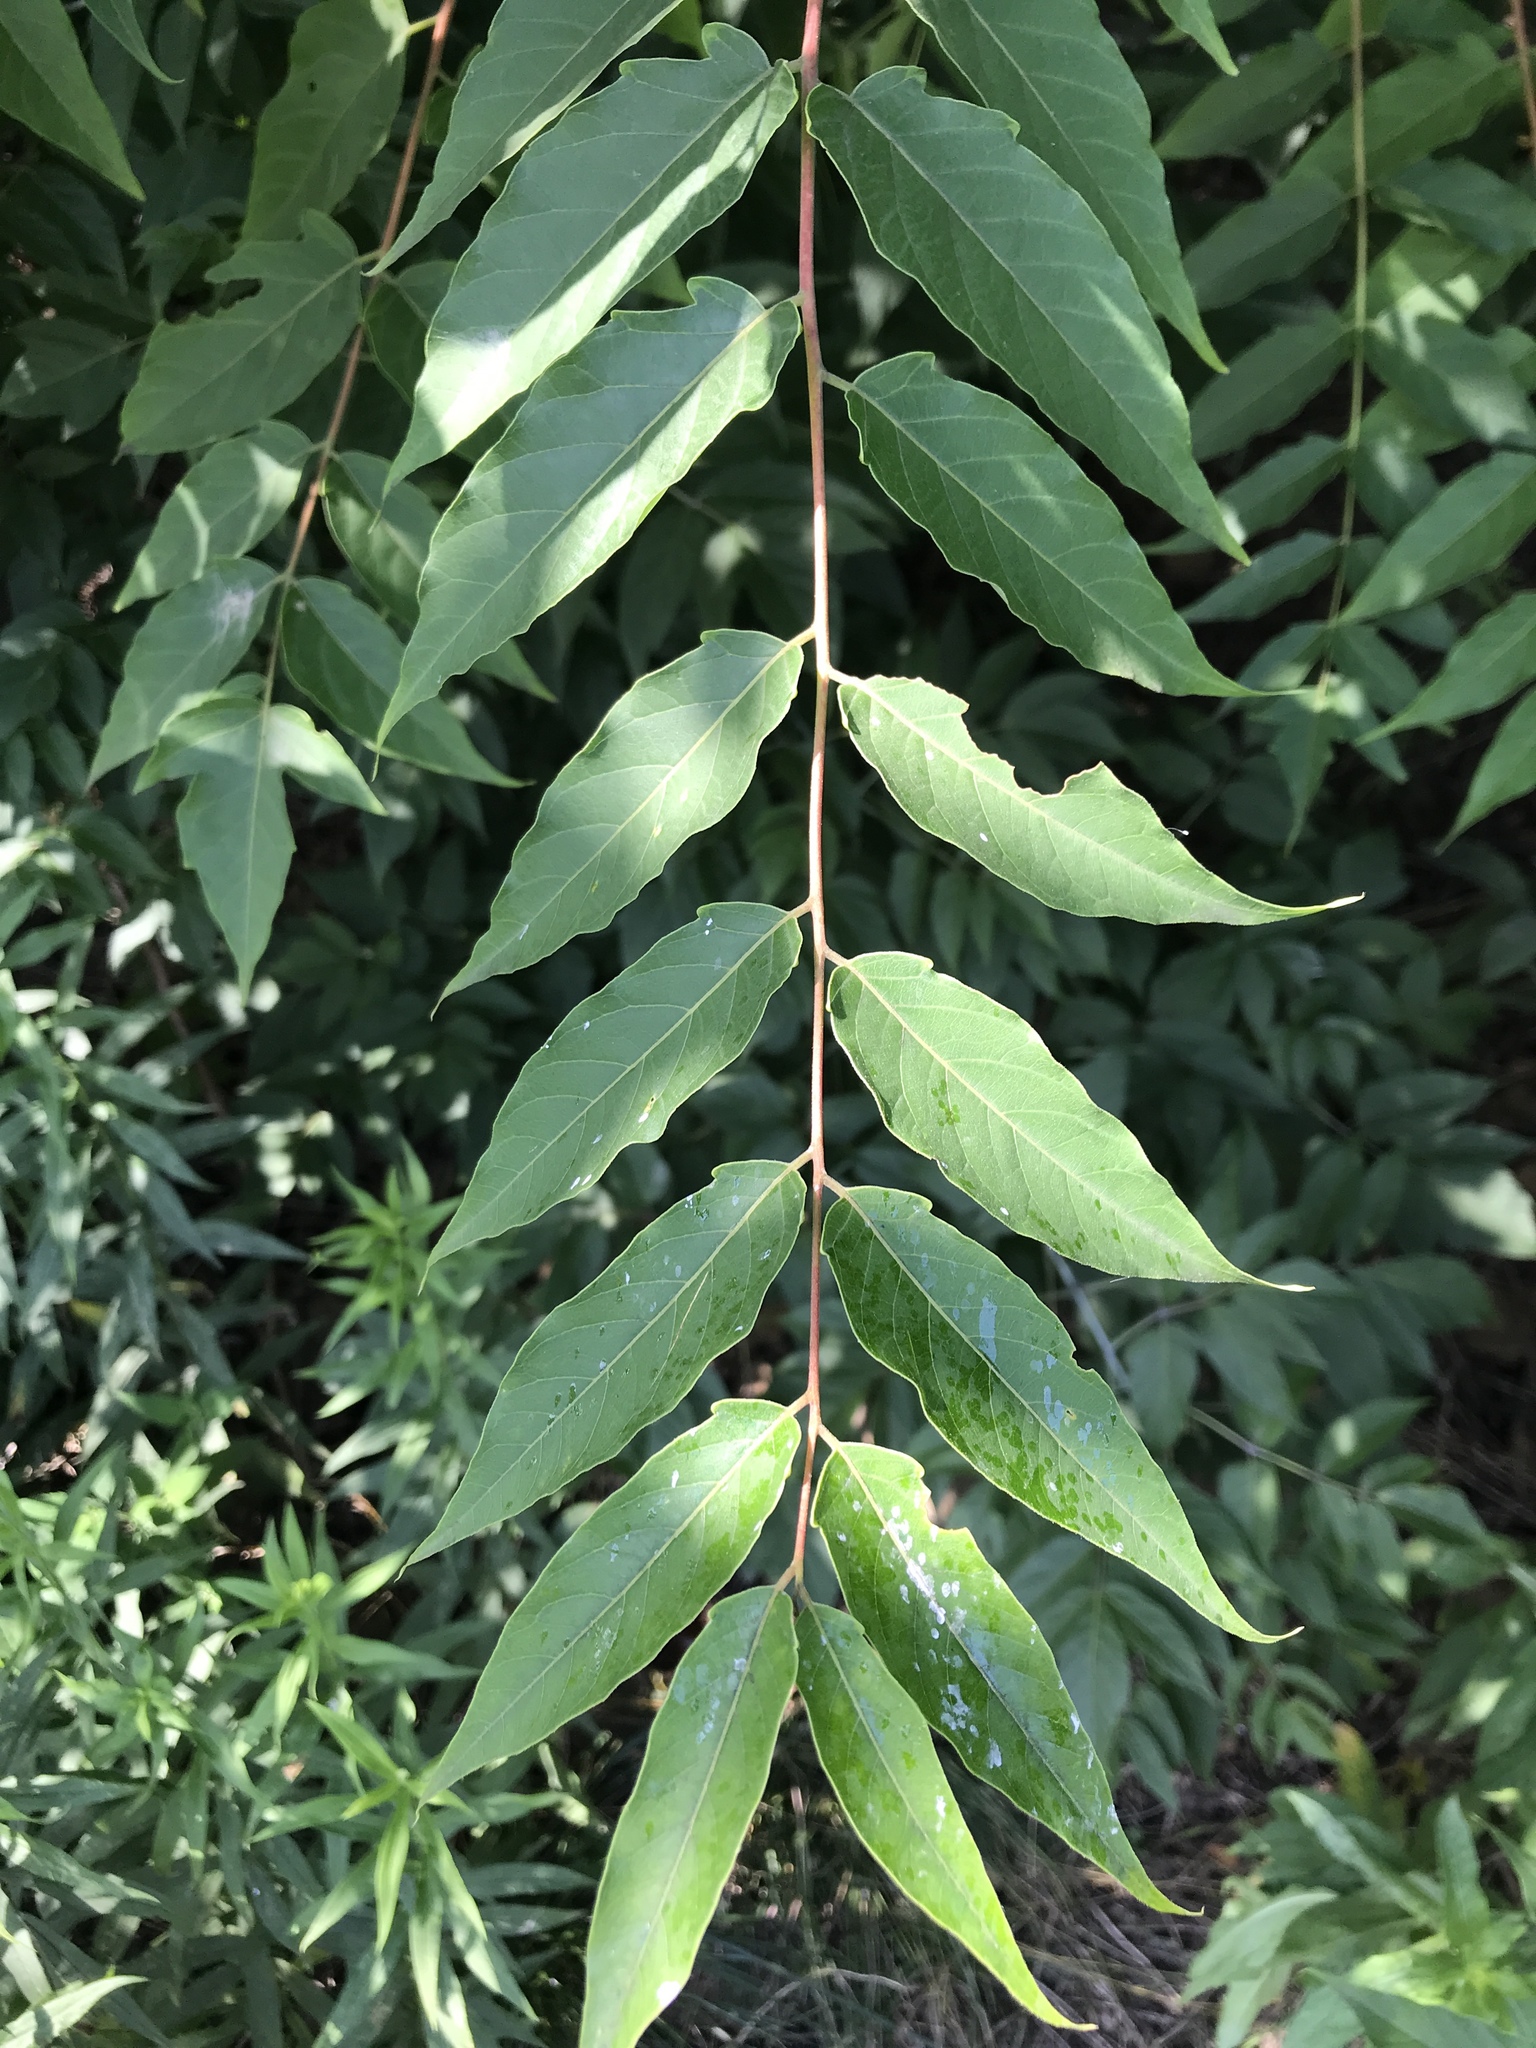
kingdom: Plantae
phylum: Tracheophyta
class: Magnoliopsida
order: Sapindales
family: Simaroubaceae
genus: Ailanthus
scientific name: Ailanthus altissima
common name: Tree-of-heaven
